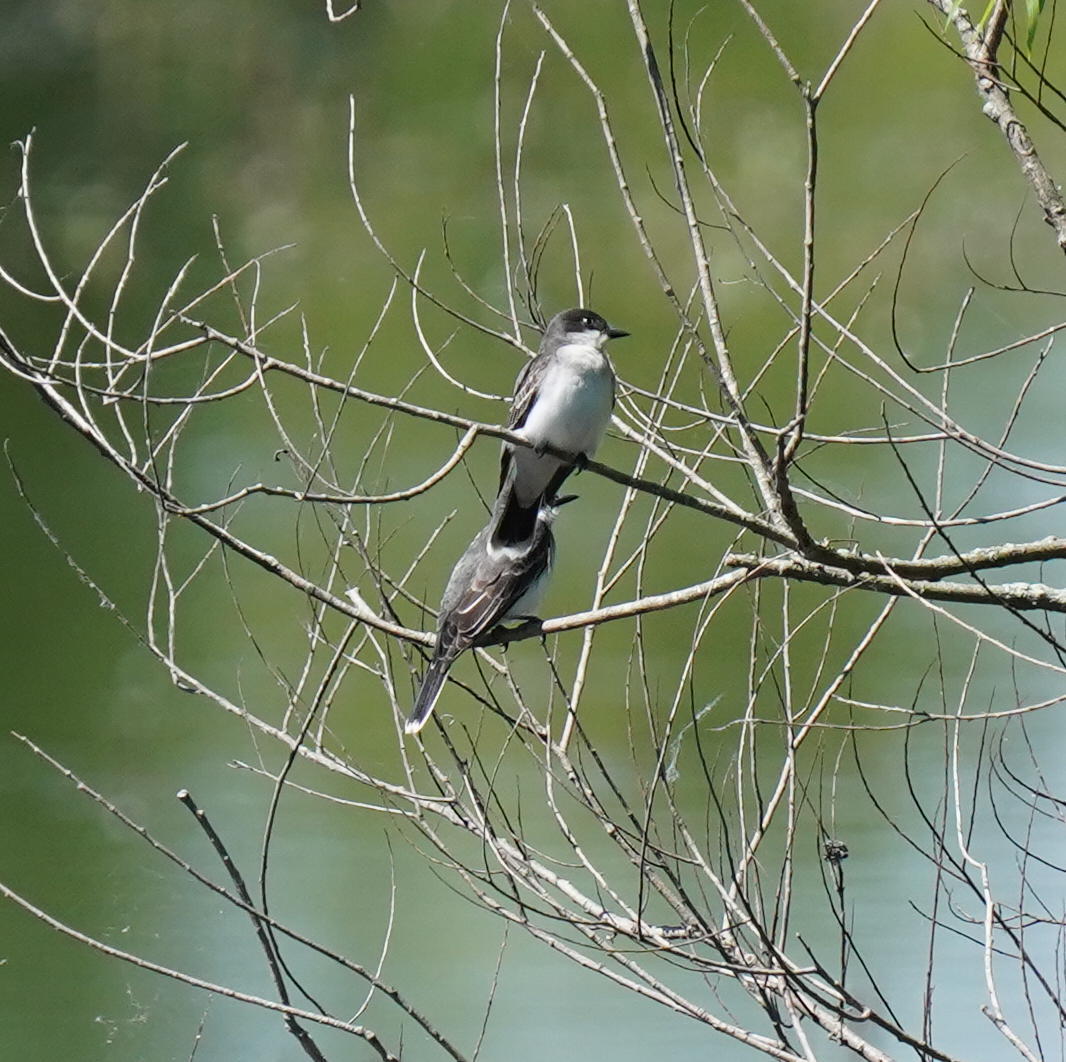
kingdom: Animalia
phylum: Chordata
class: Aves
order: Passeriformes
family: Tyrannidae
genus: Tyrannus
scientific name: Tyrannus tyrannus
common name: Eastern kingbird
